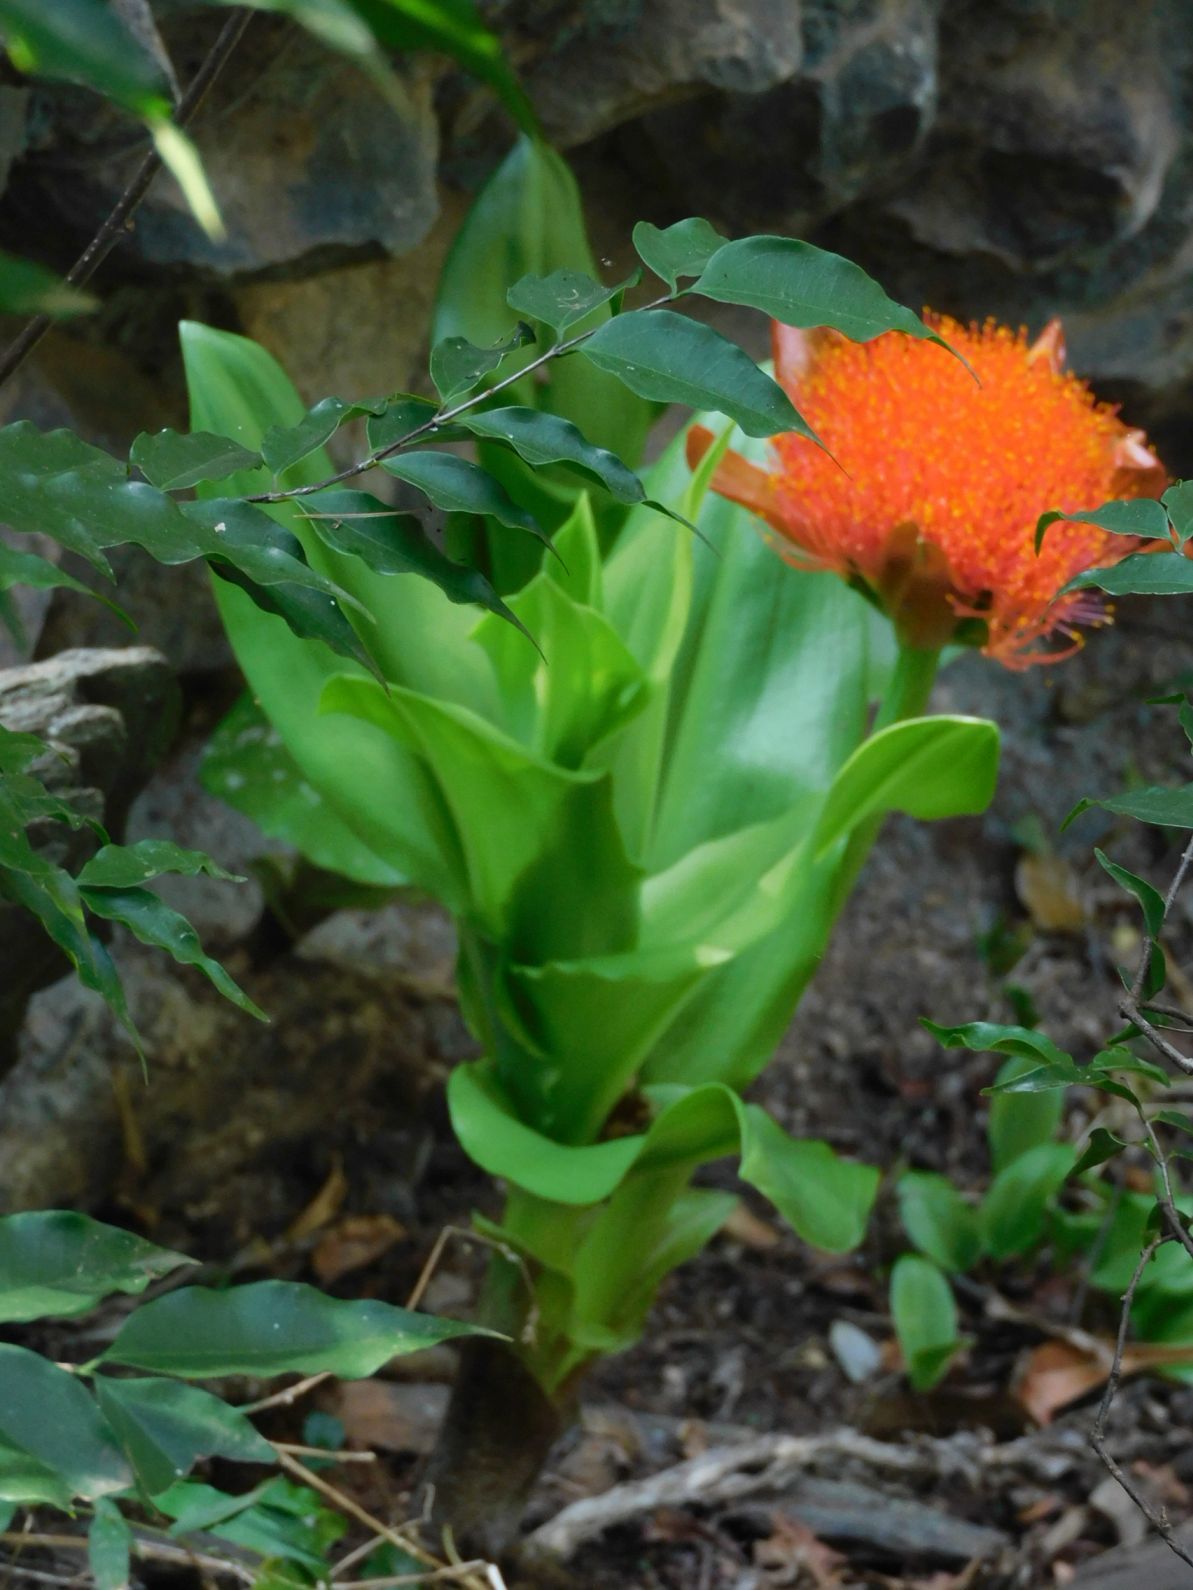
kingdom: Plantae
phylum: Tracheophyta
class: Liliopsida
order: Asparagales
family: Amaryllidaceae
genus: Scadoxus
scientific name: Scadoxus puniceus
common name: Royal-paintbrush
